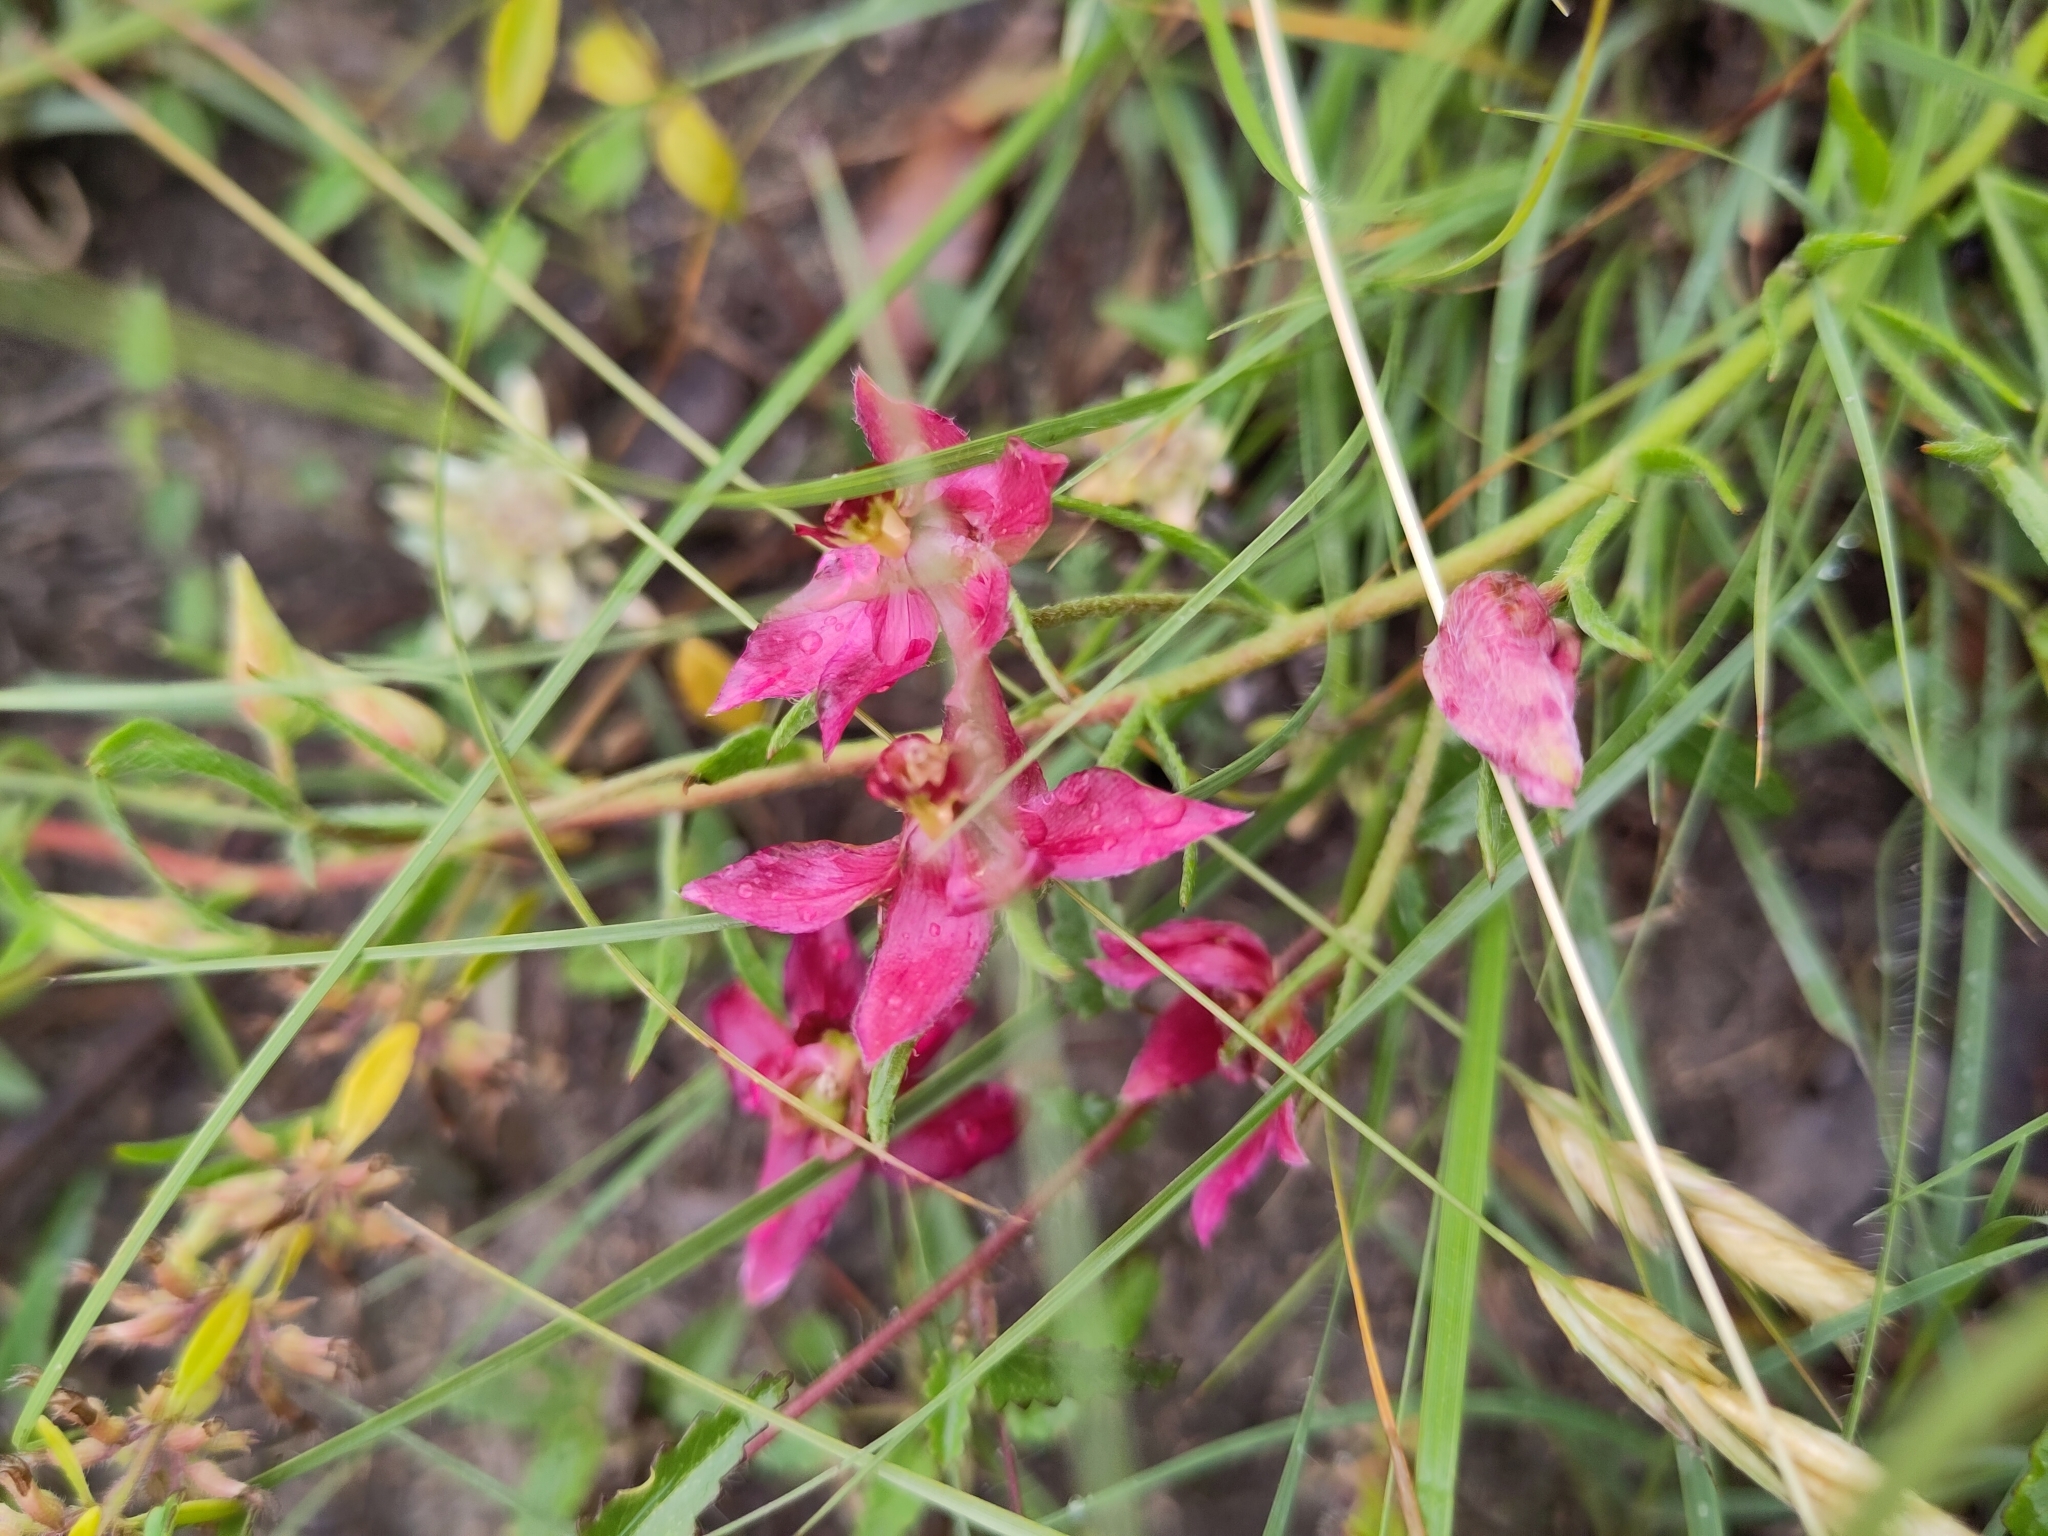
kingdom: Plantae
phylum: Tracheophyta
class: Magnoliopsida
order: Zygophyllales
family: Krameriaceae
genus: Krameria
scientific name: Krameria lanceolata
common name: Ratany
